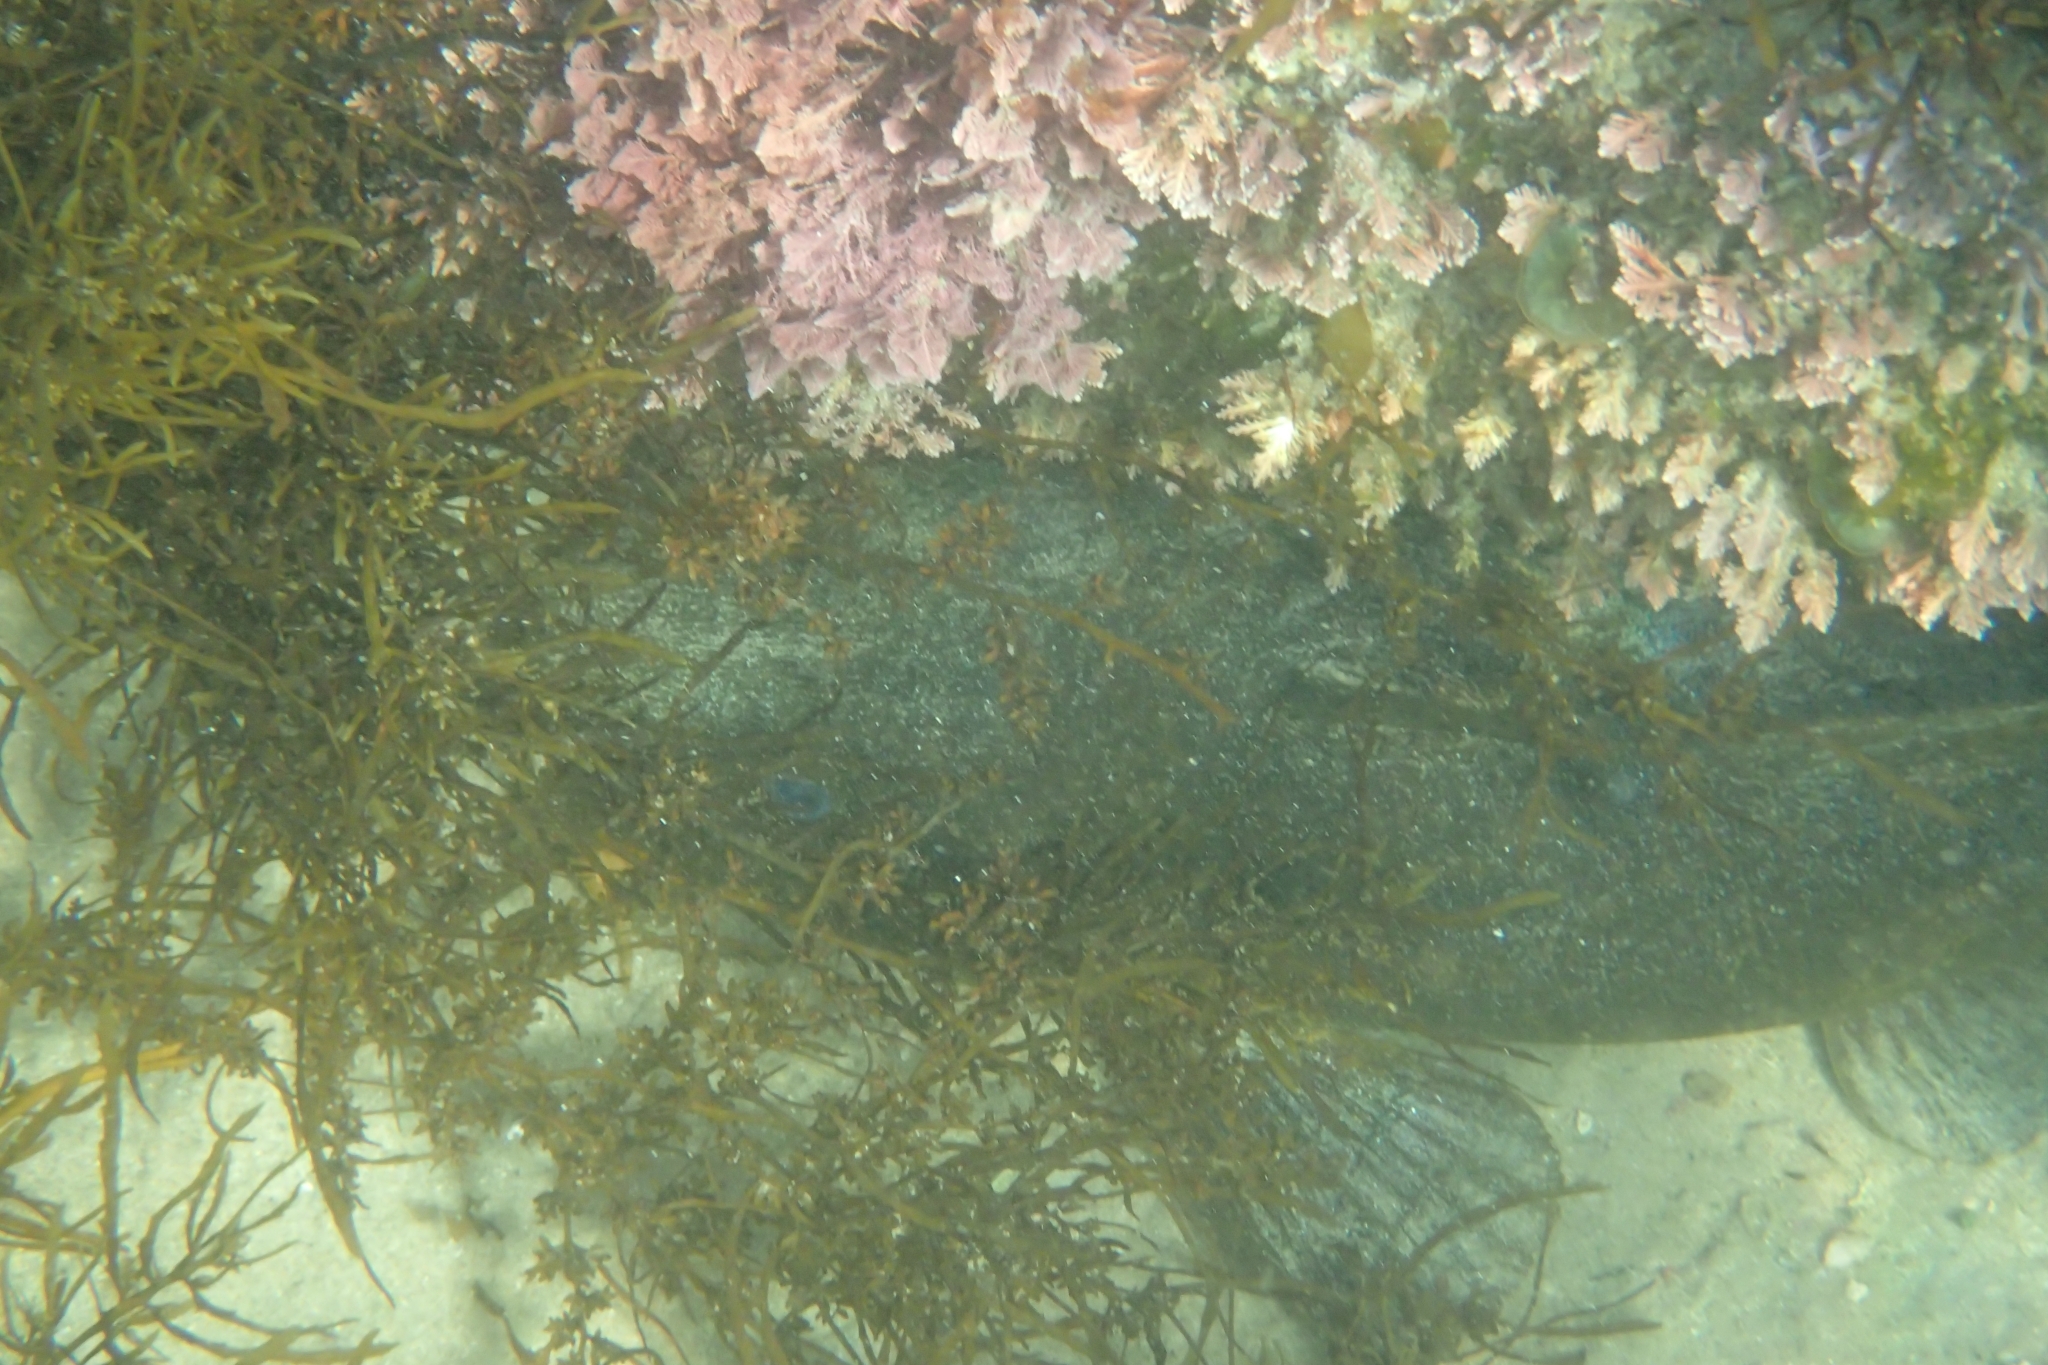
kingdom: Animalia
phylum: Chordata
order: Siluriformes
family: Plotosidae
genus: Cnidoglanis
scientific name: Cnidoglanis macrocephalus
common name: Cobbler
